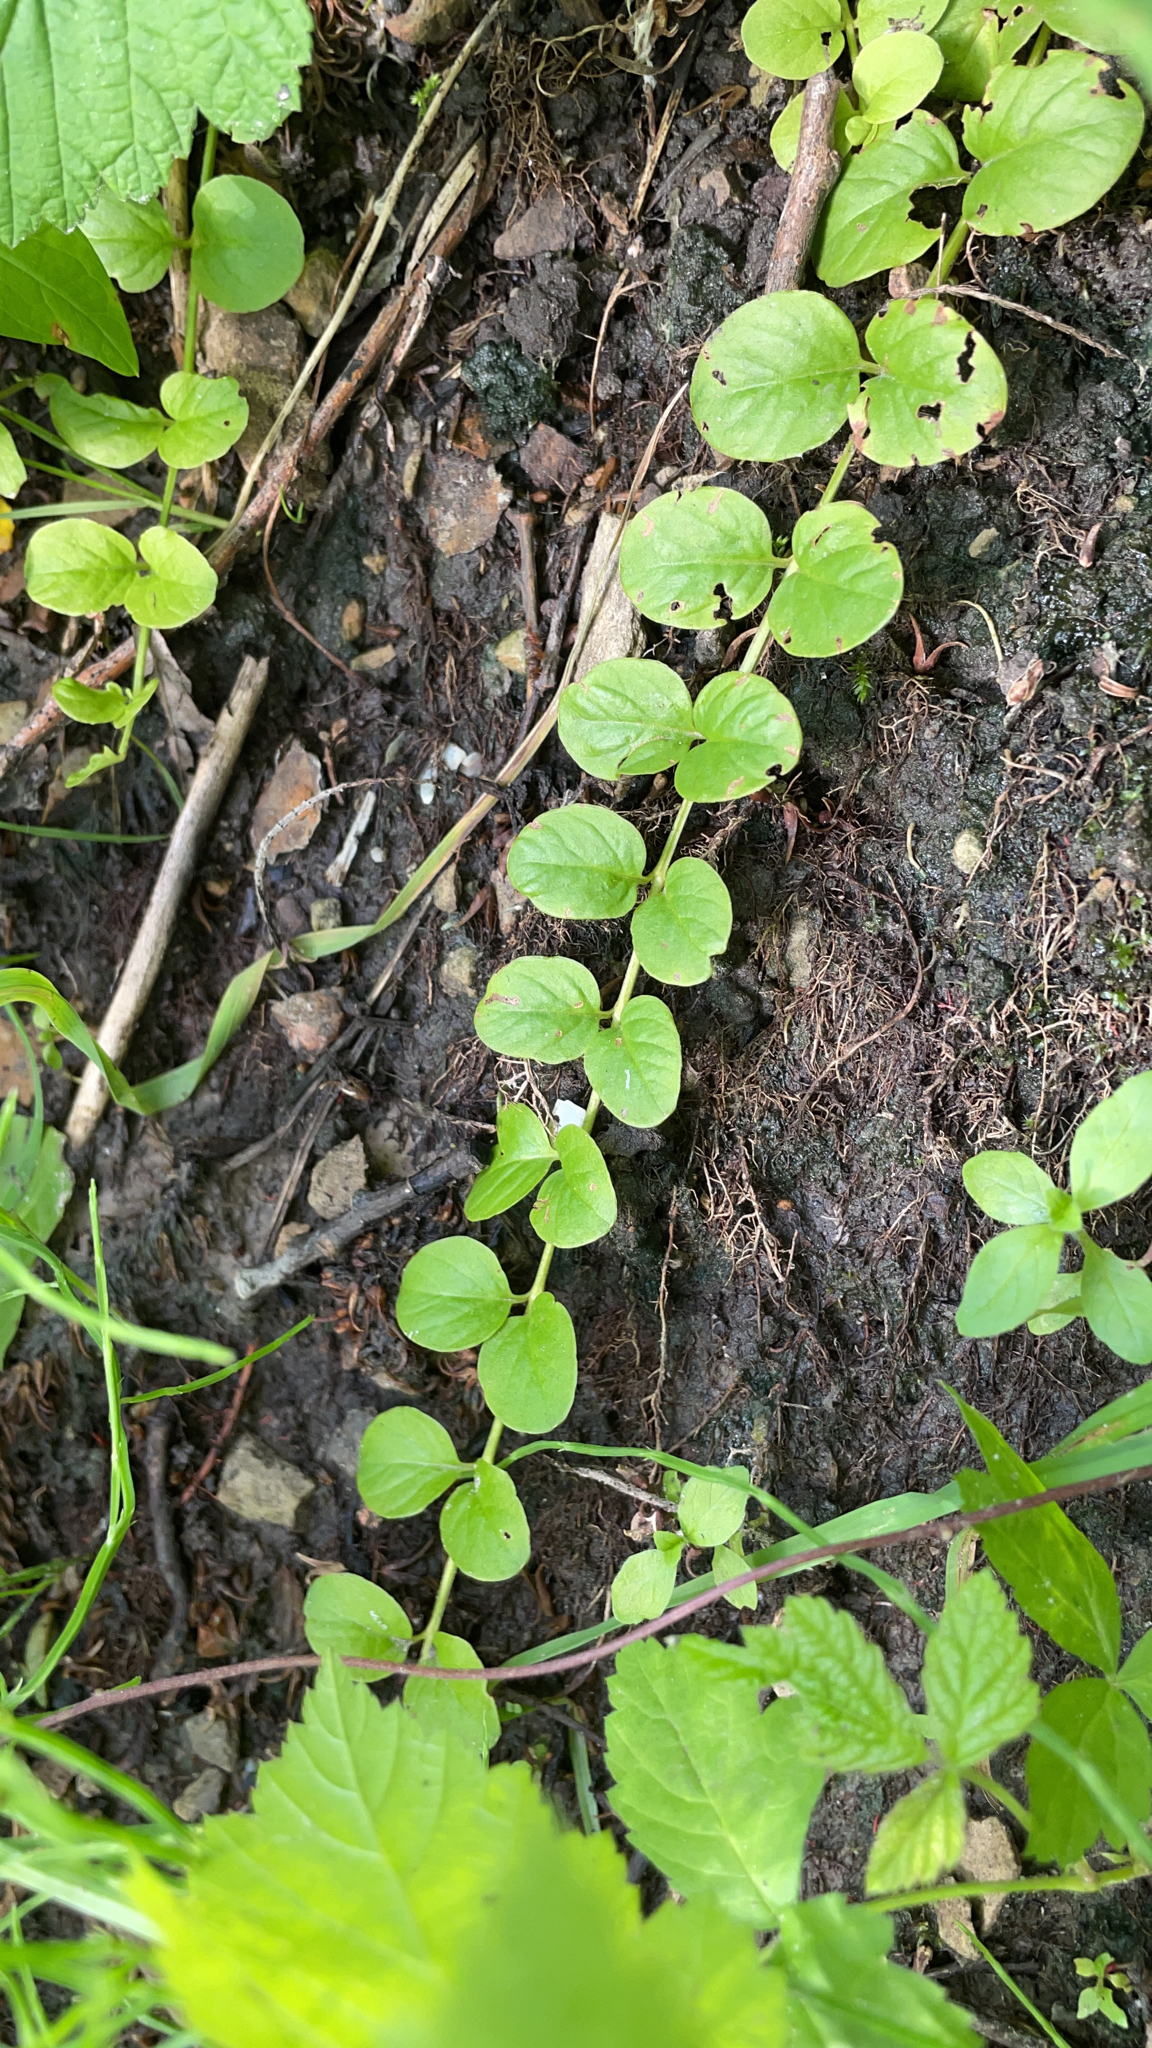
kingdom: Plantae
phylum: Tracheophyta
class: Magnoliopsida
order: Ericales
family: Primulaceae
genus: Lysimachia
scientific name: Lysimachia nummularia
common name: Moneywort
